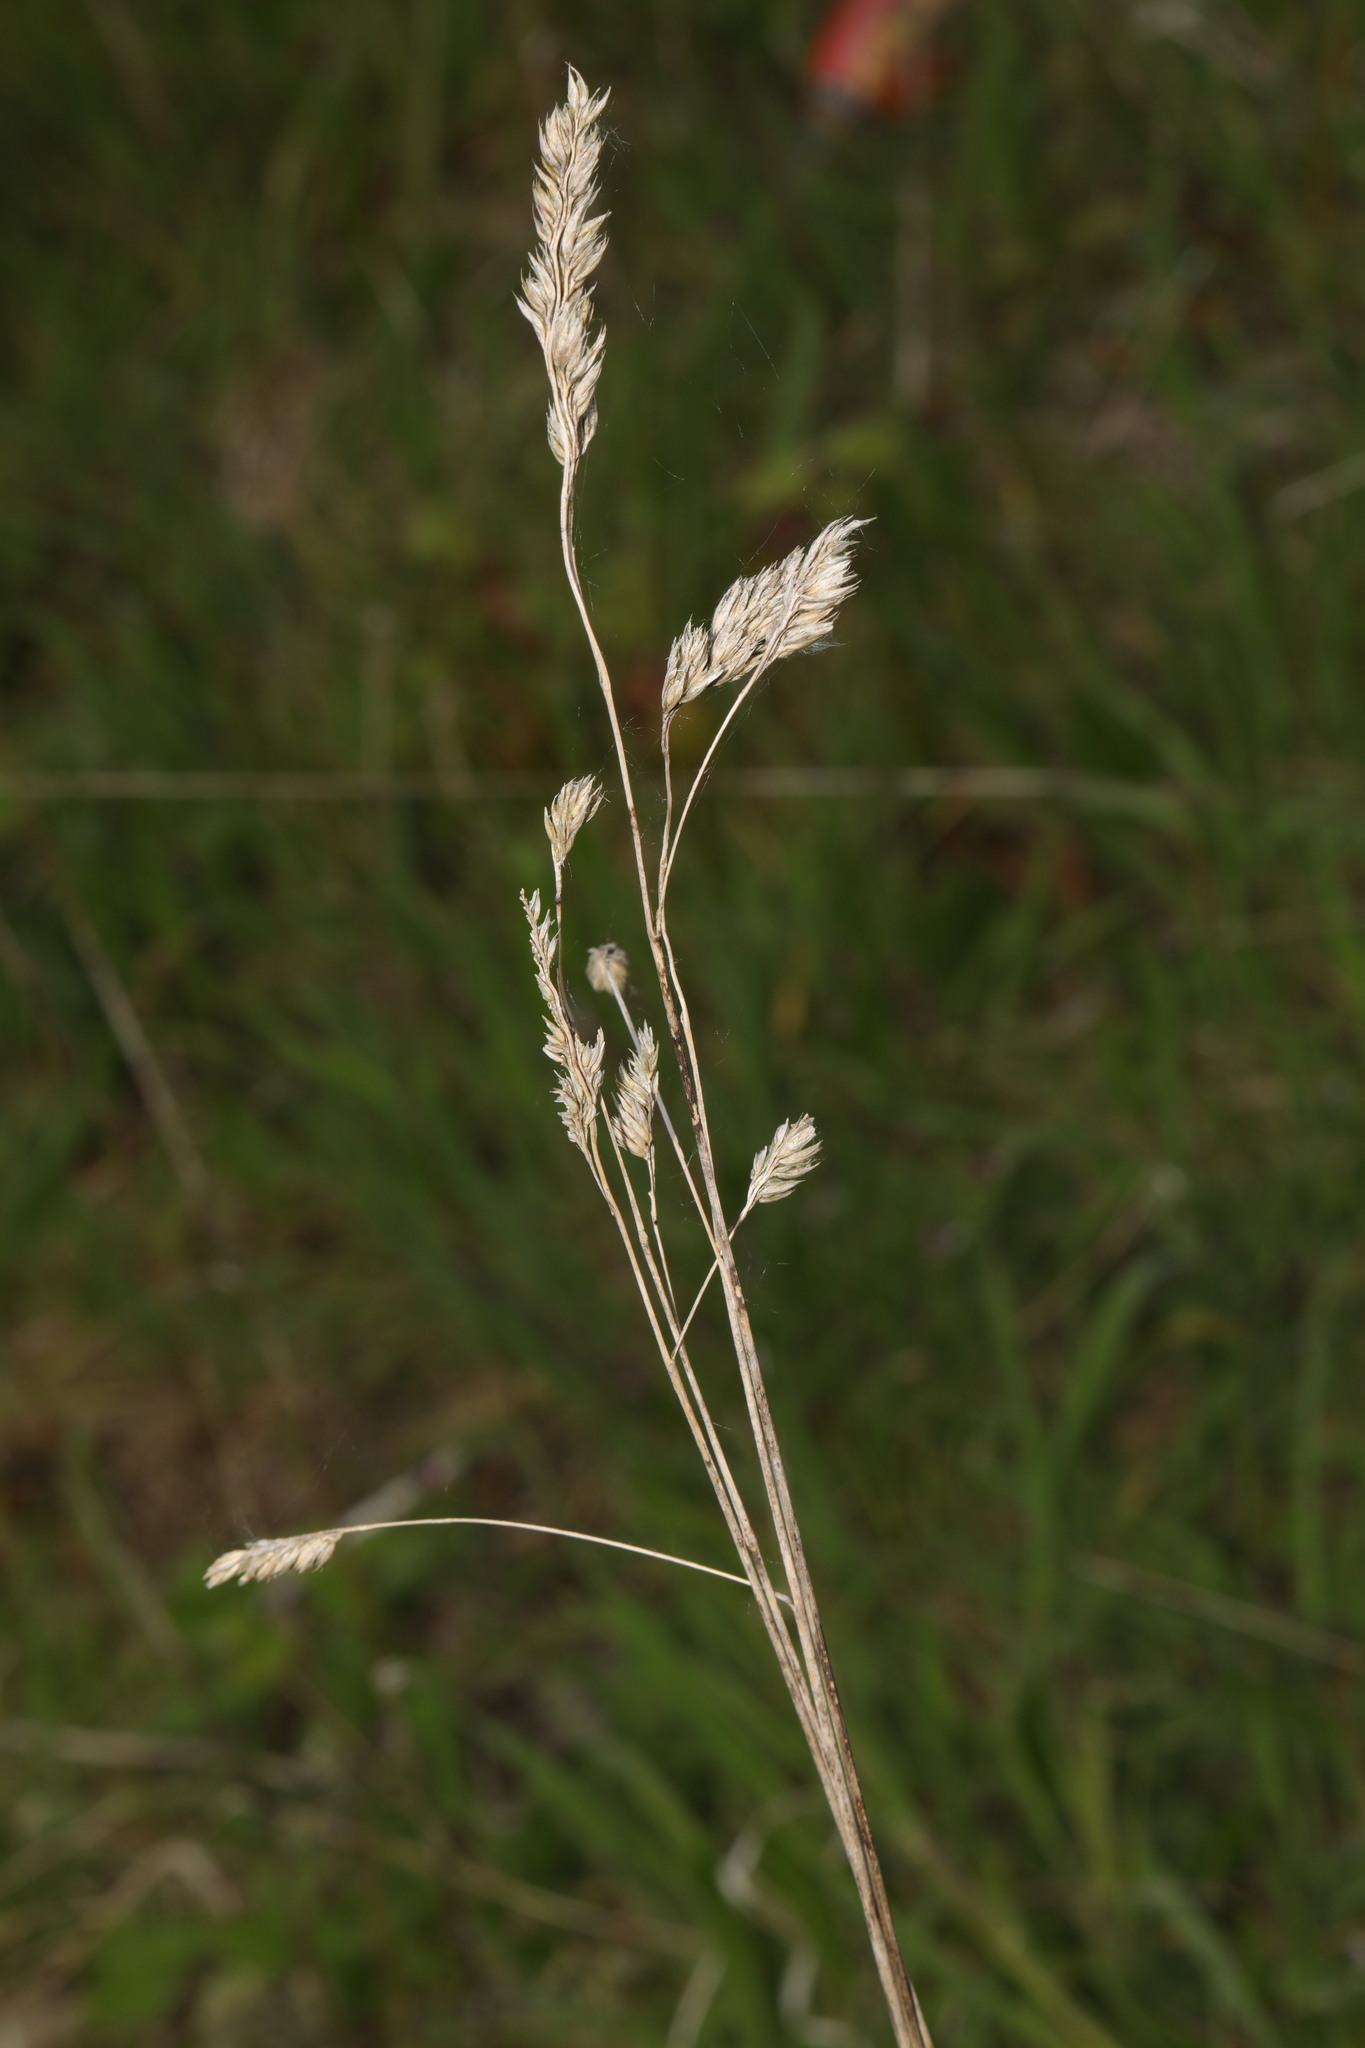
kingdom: Plantae
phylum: Tracheophyta
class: Liliopsida
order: Poales
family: Poaceae
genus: Dactylis
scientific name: Dactylis glomerata
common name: Orchardgrass
